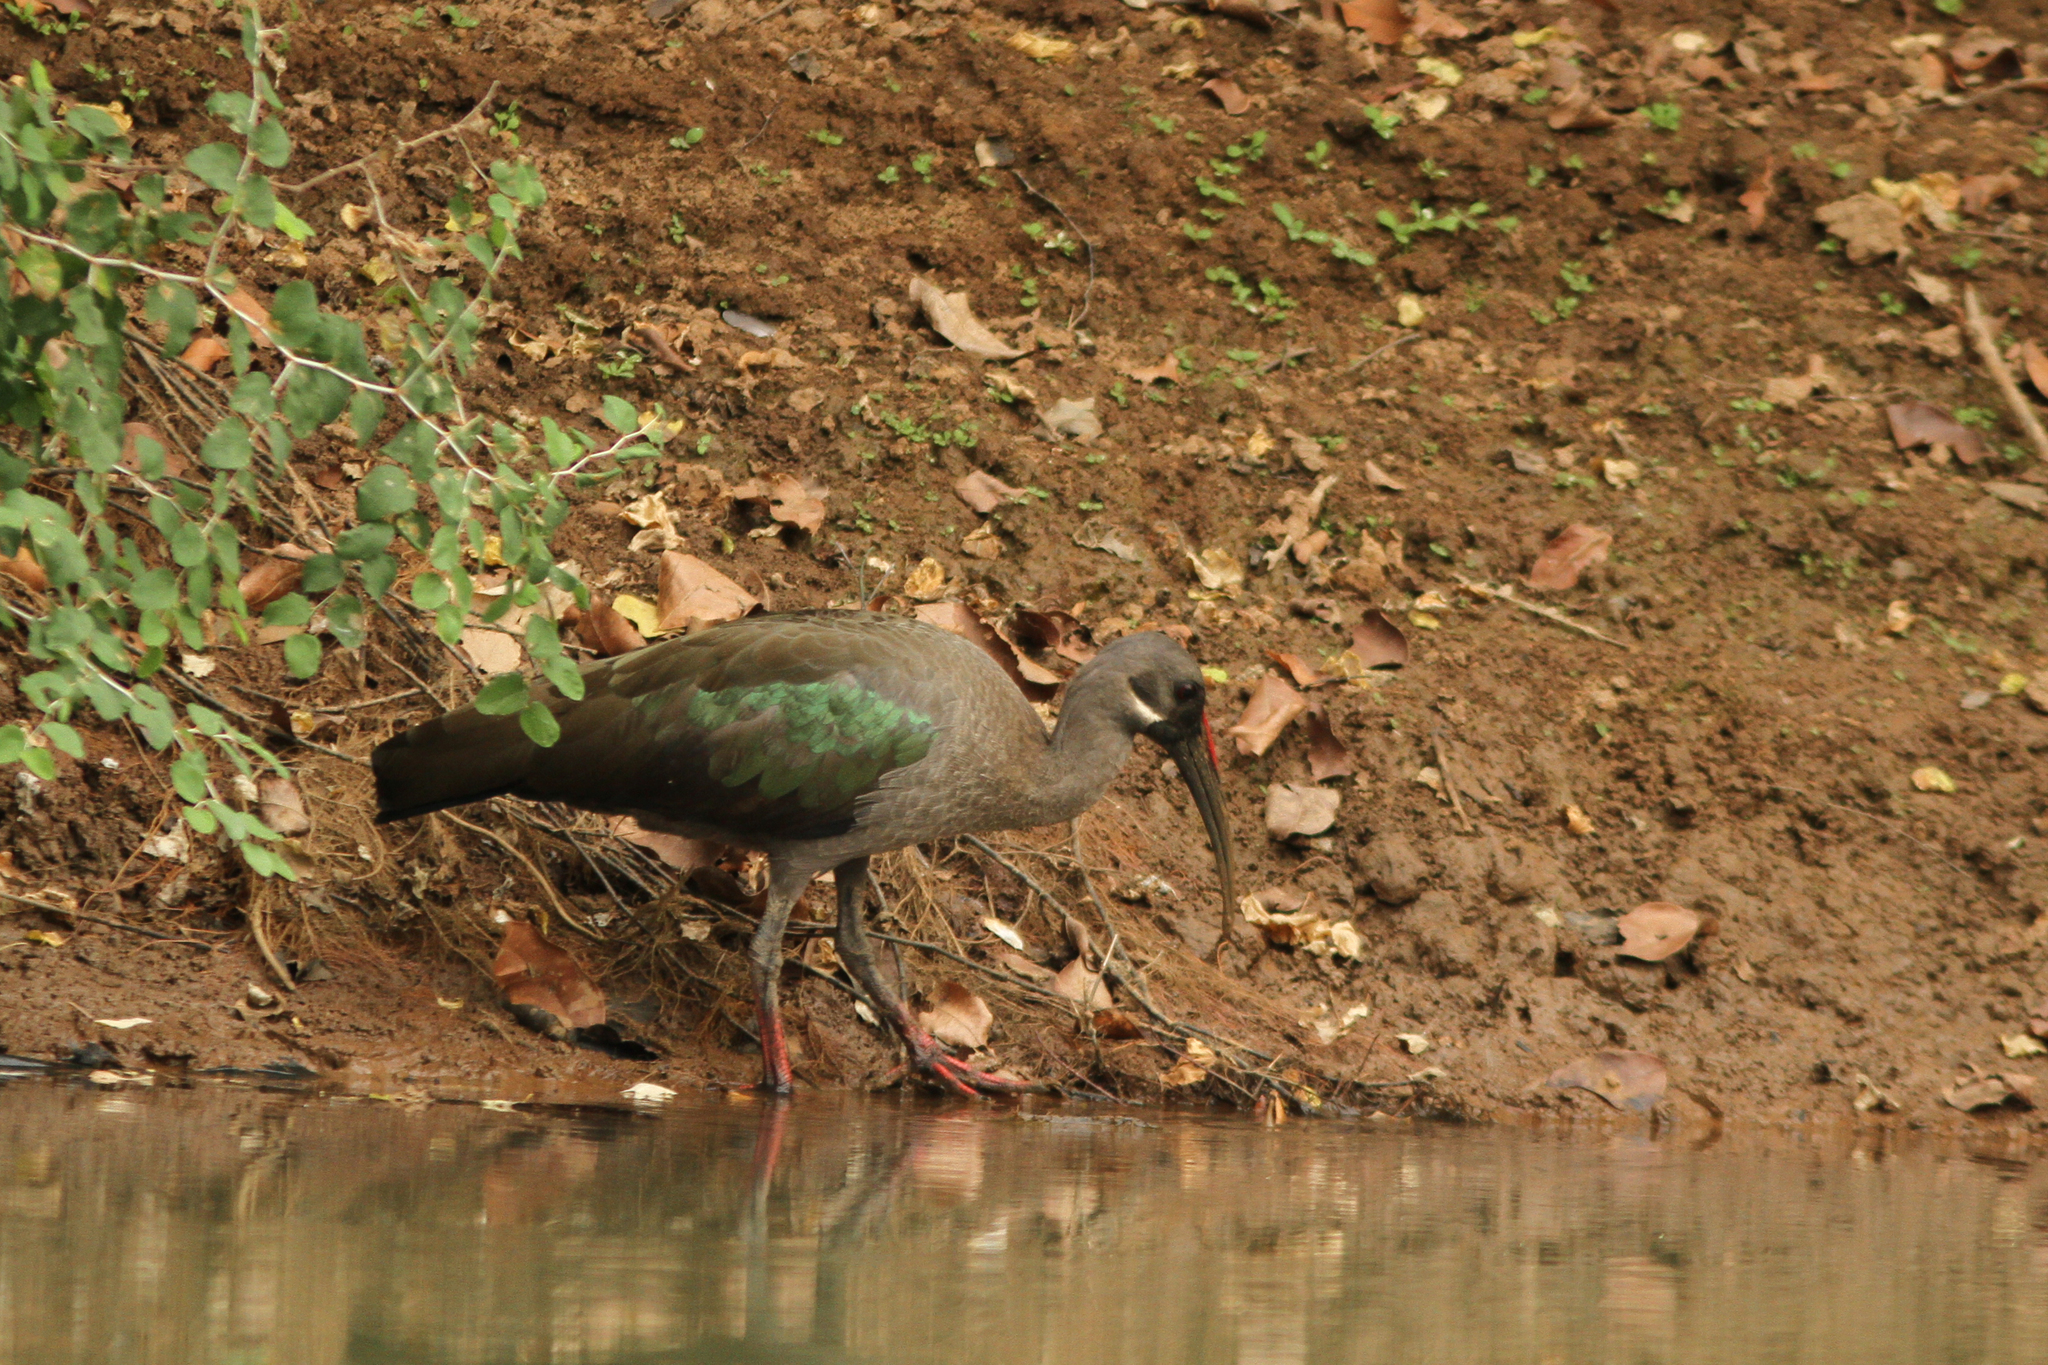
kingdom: Animalia
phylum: Chordata
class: Aves
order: Pelecaniformes
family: Threskiornithidae
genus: Bostrychia
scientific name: Bostrychia hagedash
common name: Hadada ibis
